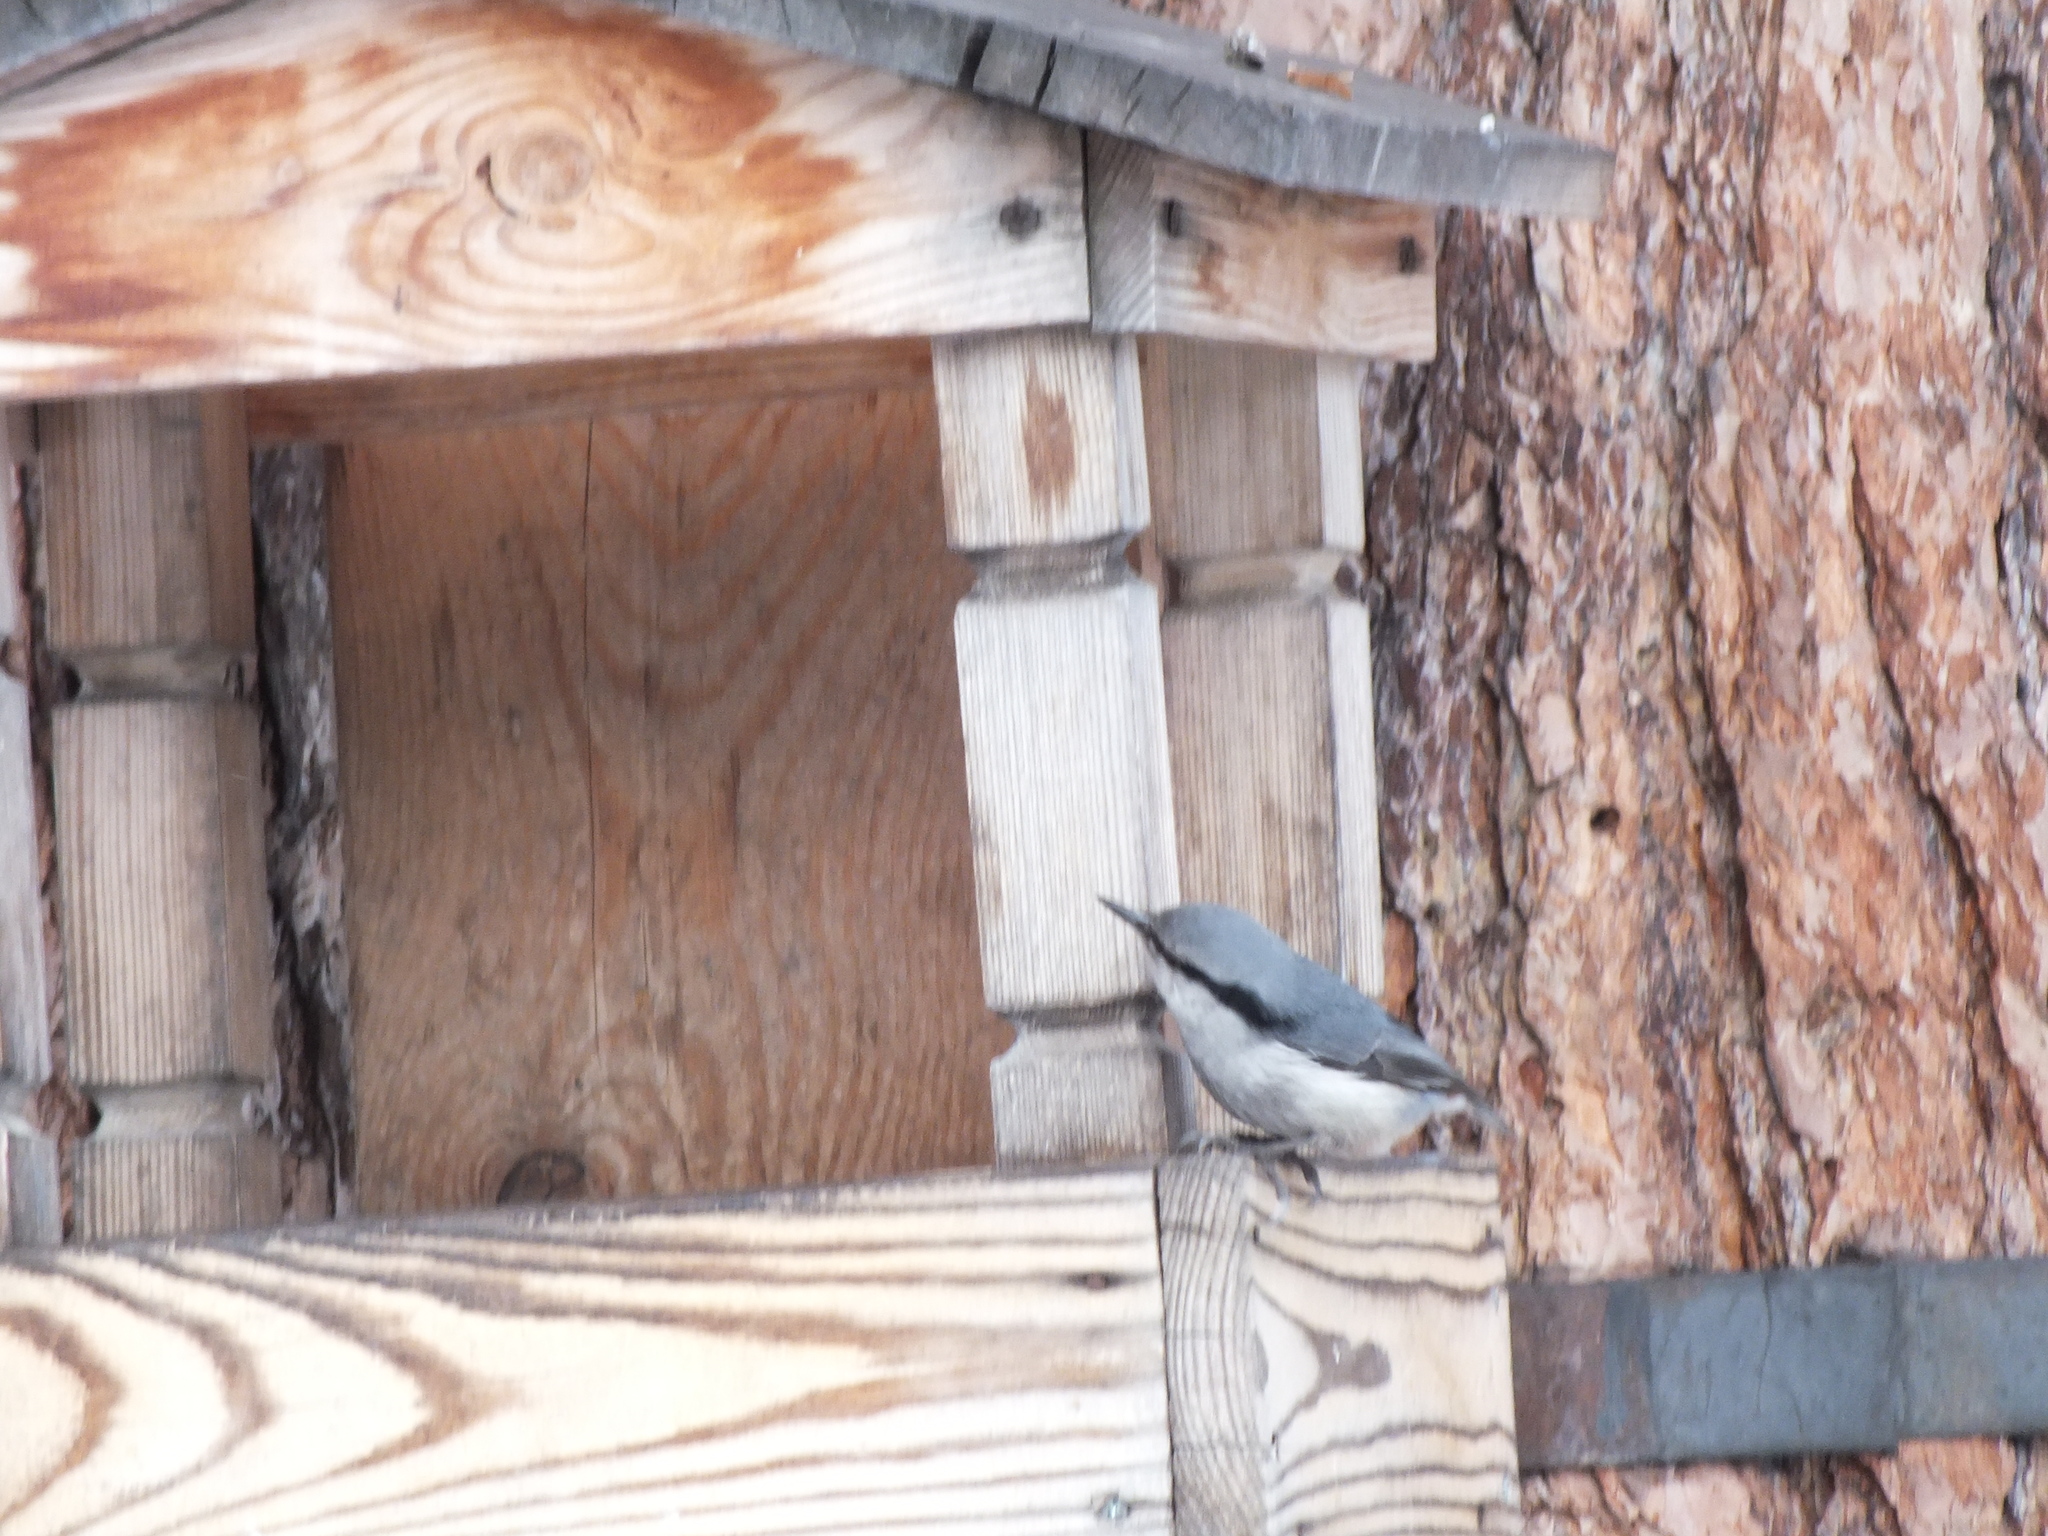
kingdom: Animalia
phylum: Chordata
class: Aves
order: Passeriformes
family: Sittidae
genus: Sitta
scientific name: Sitta europaea
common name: Eurasian nuthatch
